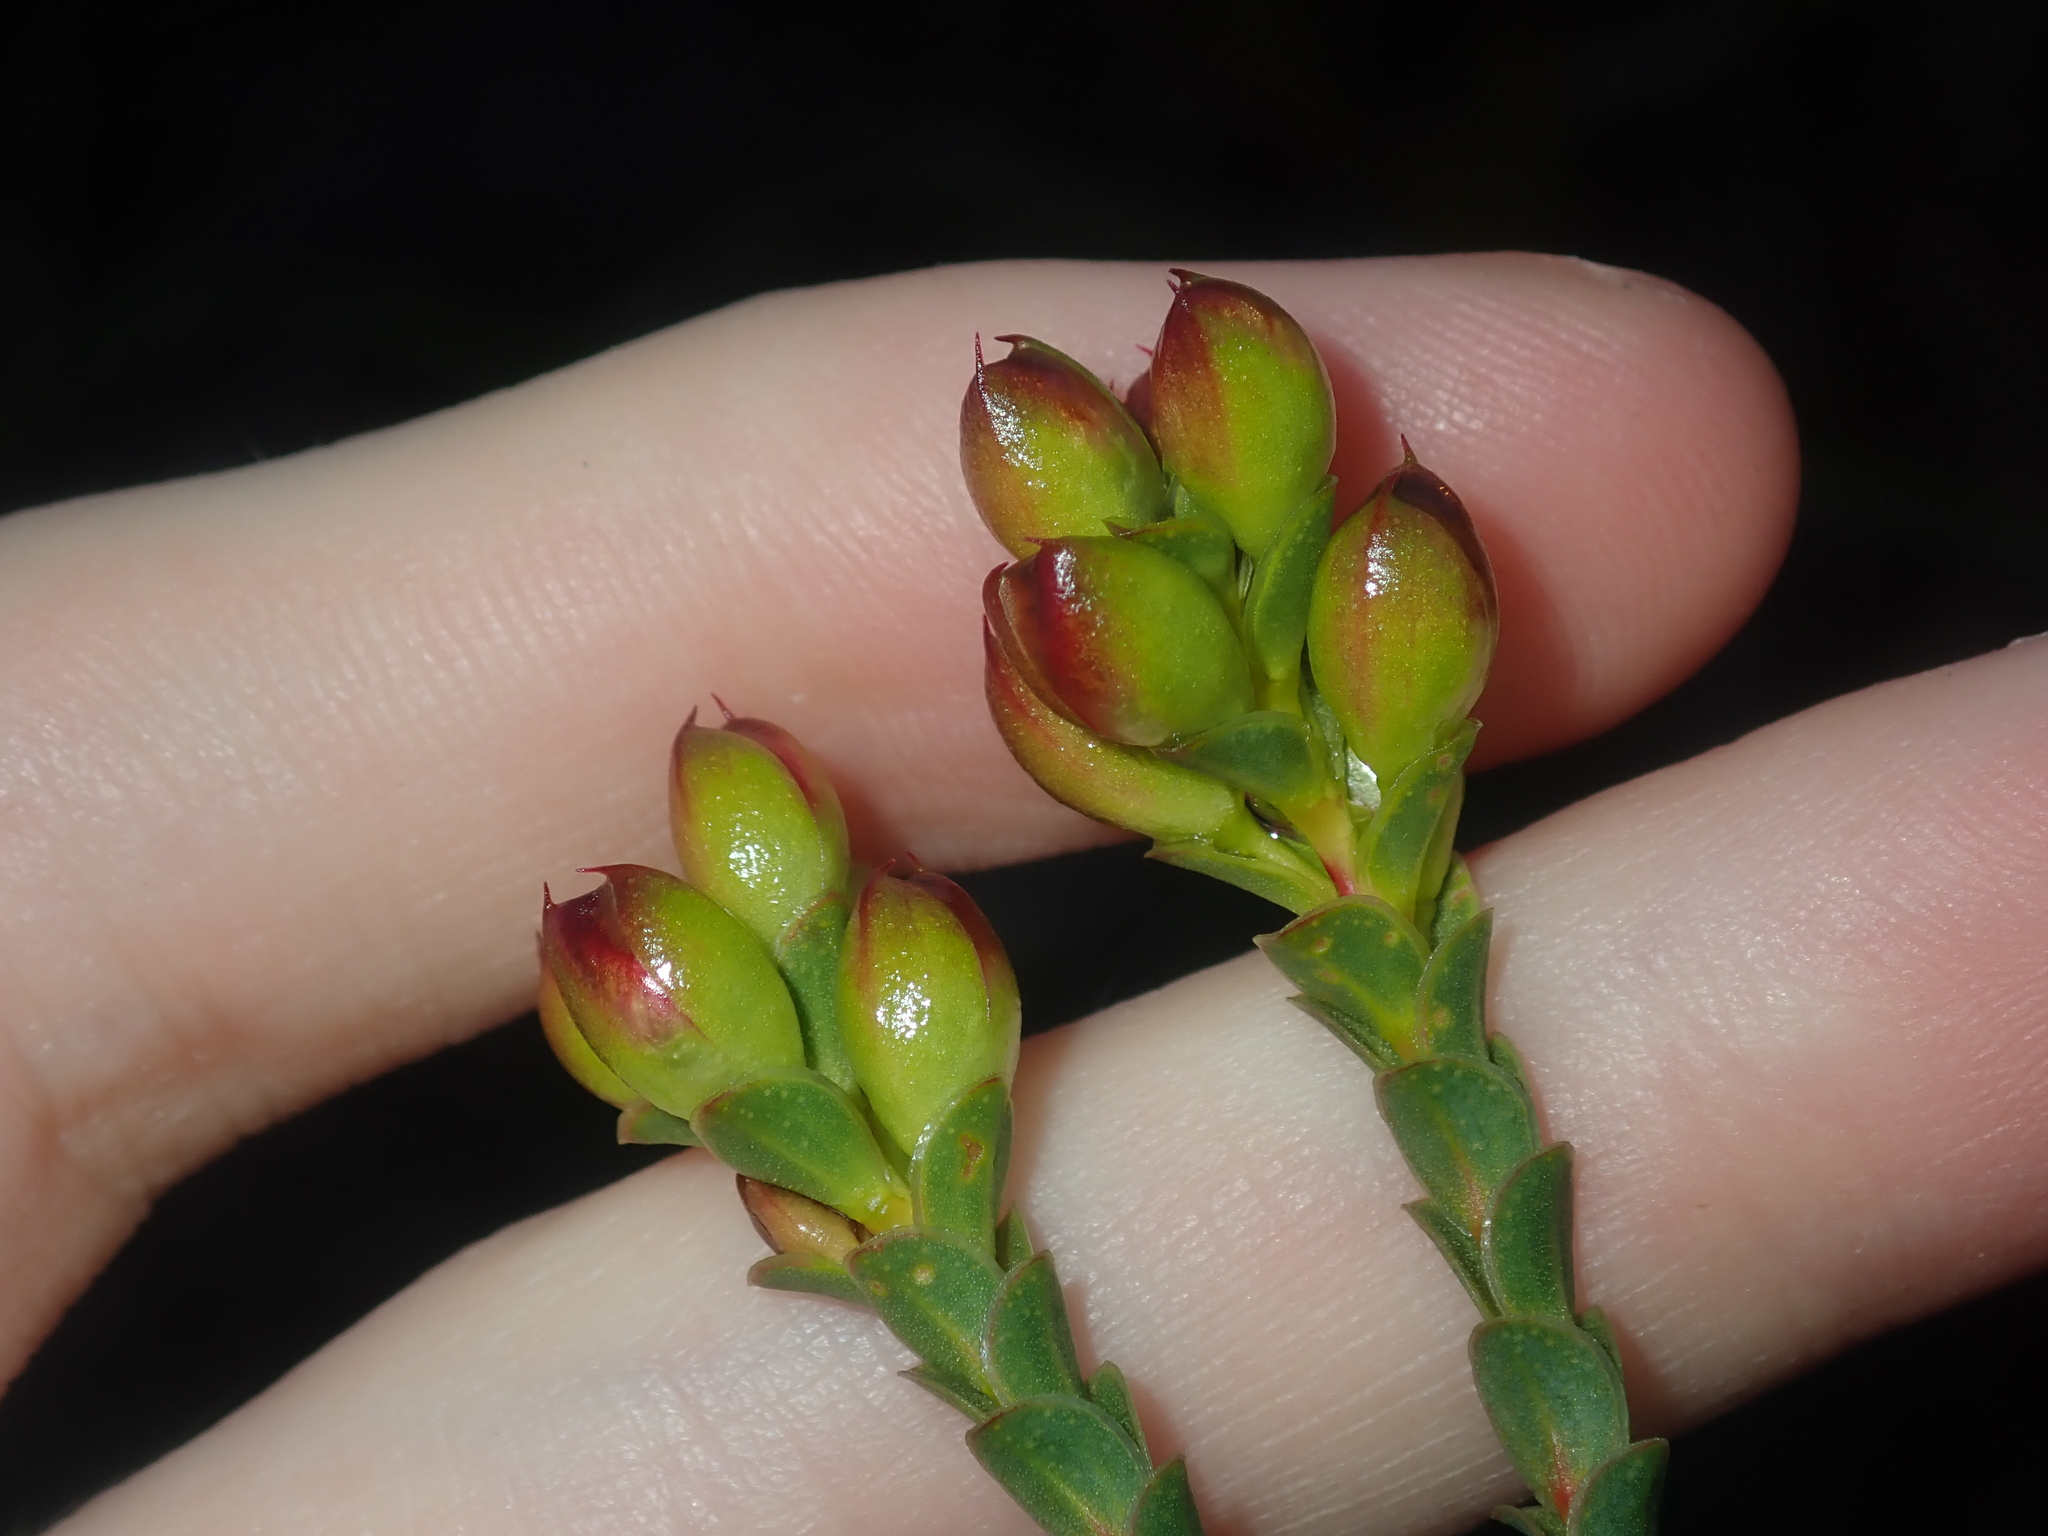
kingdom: Plantae
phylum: Tracheophyta
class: Magnoliopsida
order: Myrtales
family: Myrtaceae
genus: Verticordia
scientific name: Verticordia ovalifolia
